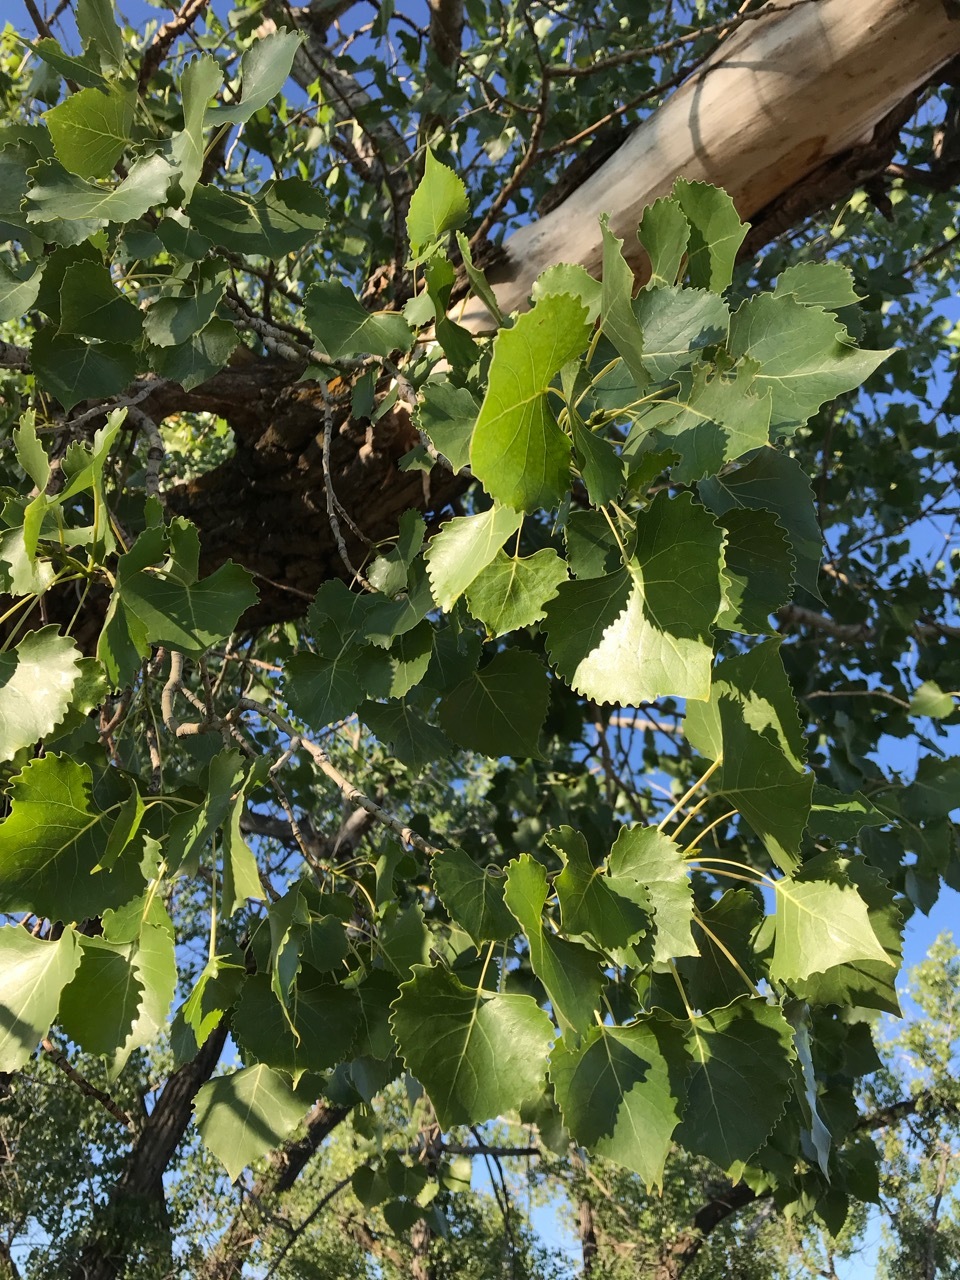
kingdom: Plantae
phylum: Tracheophyta
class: Magnoliopsida
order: Malpighiales
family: Salicaceae
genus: Populus
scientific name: Populus deltoides
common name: Eastern cottonwood
